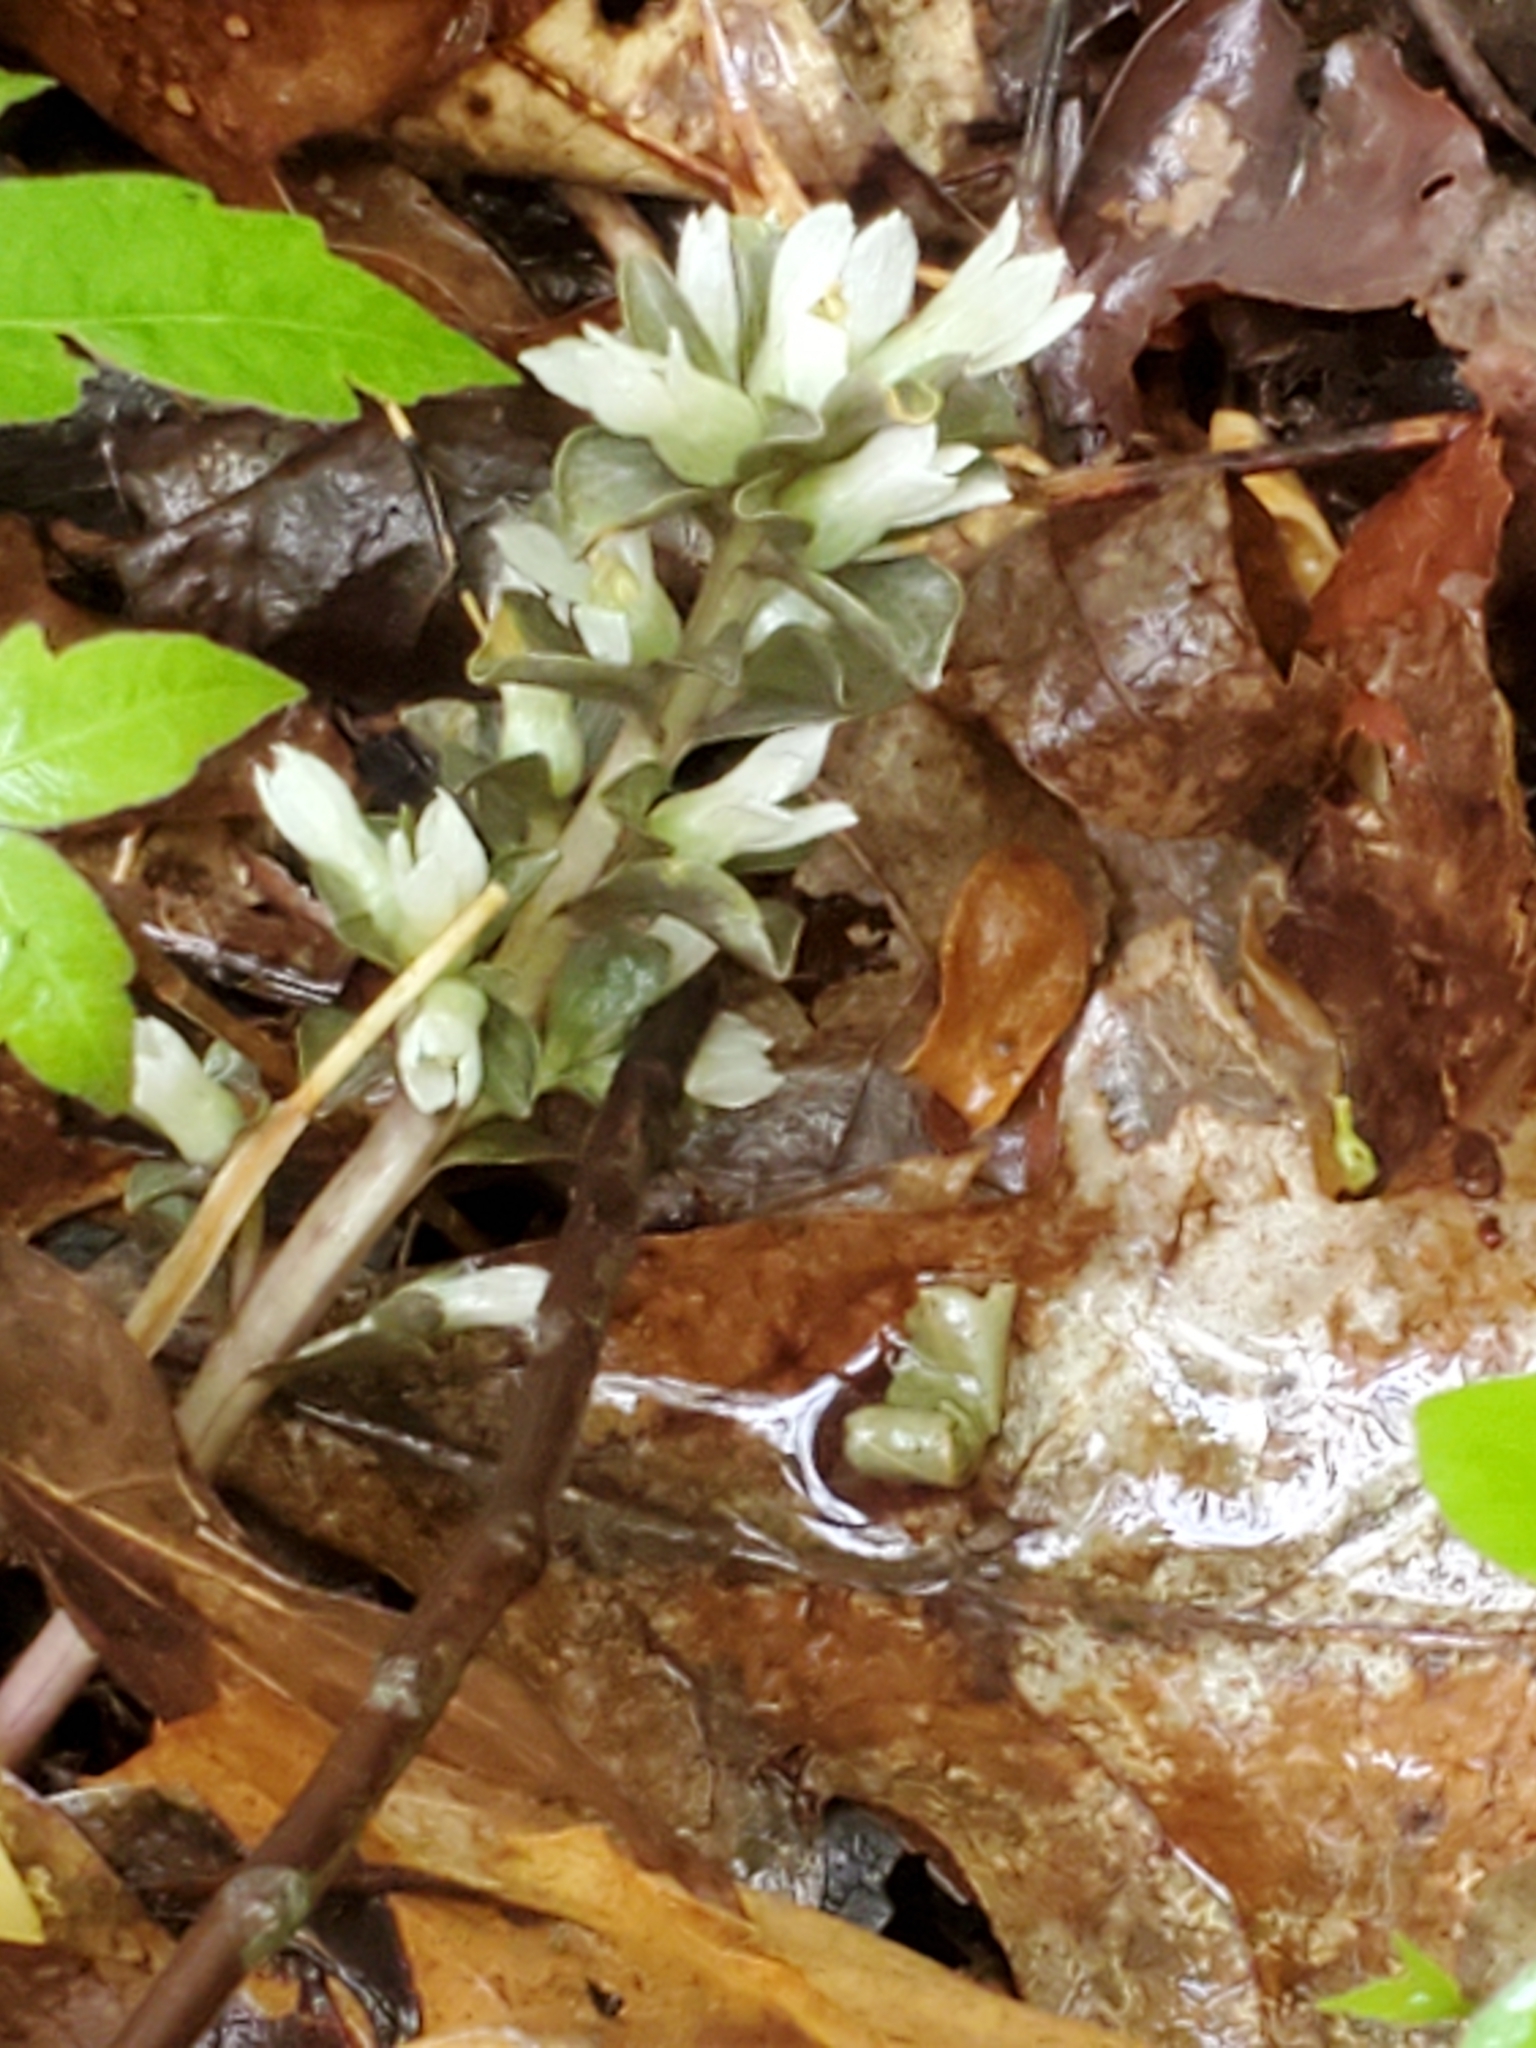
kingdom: Plantae
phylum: Tracheophyta
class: Magnoliopsida
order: Gentianales
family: Gentianaceae
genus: Obolaria
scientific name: Obolaria virginica
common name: Pennywort
